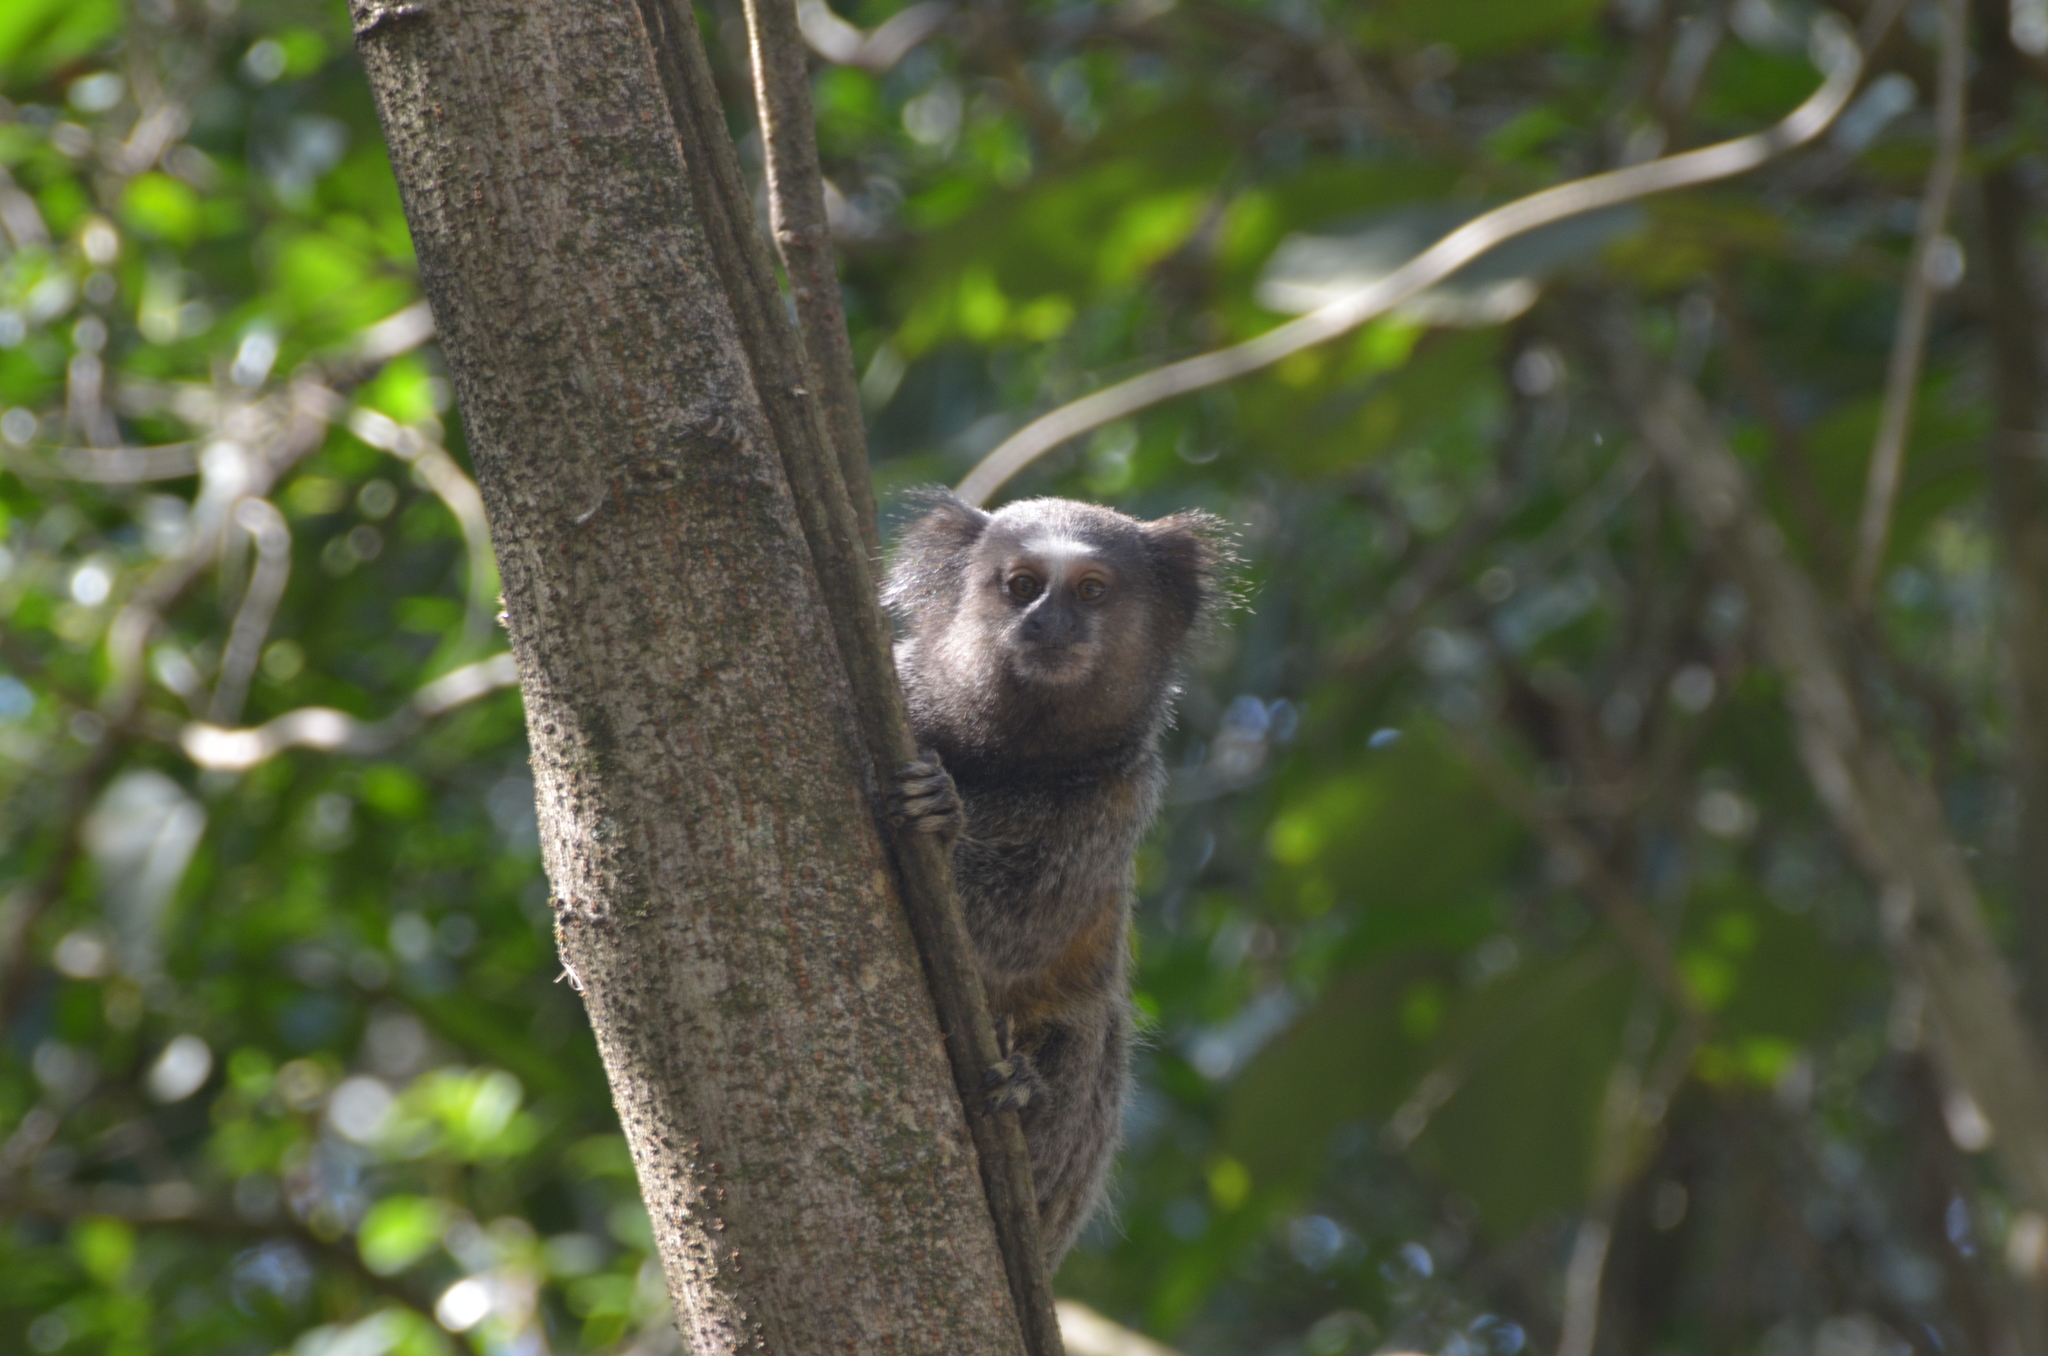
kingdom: Animalia
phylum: Chordata
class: Mammalia
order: Primates
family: Callitrichidae
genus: Callithrix
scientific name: Callithrix penicillata
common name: Black-tufted marmoset
